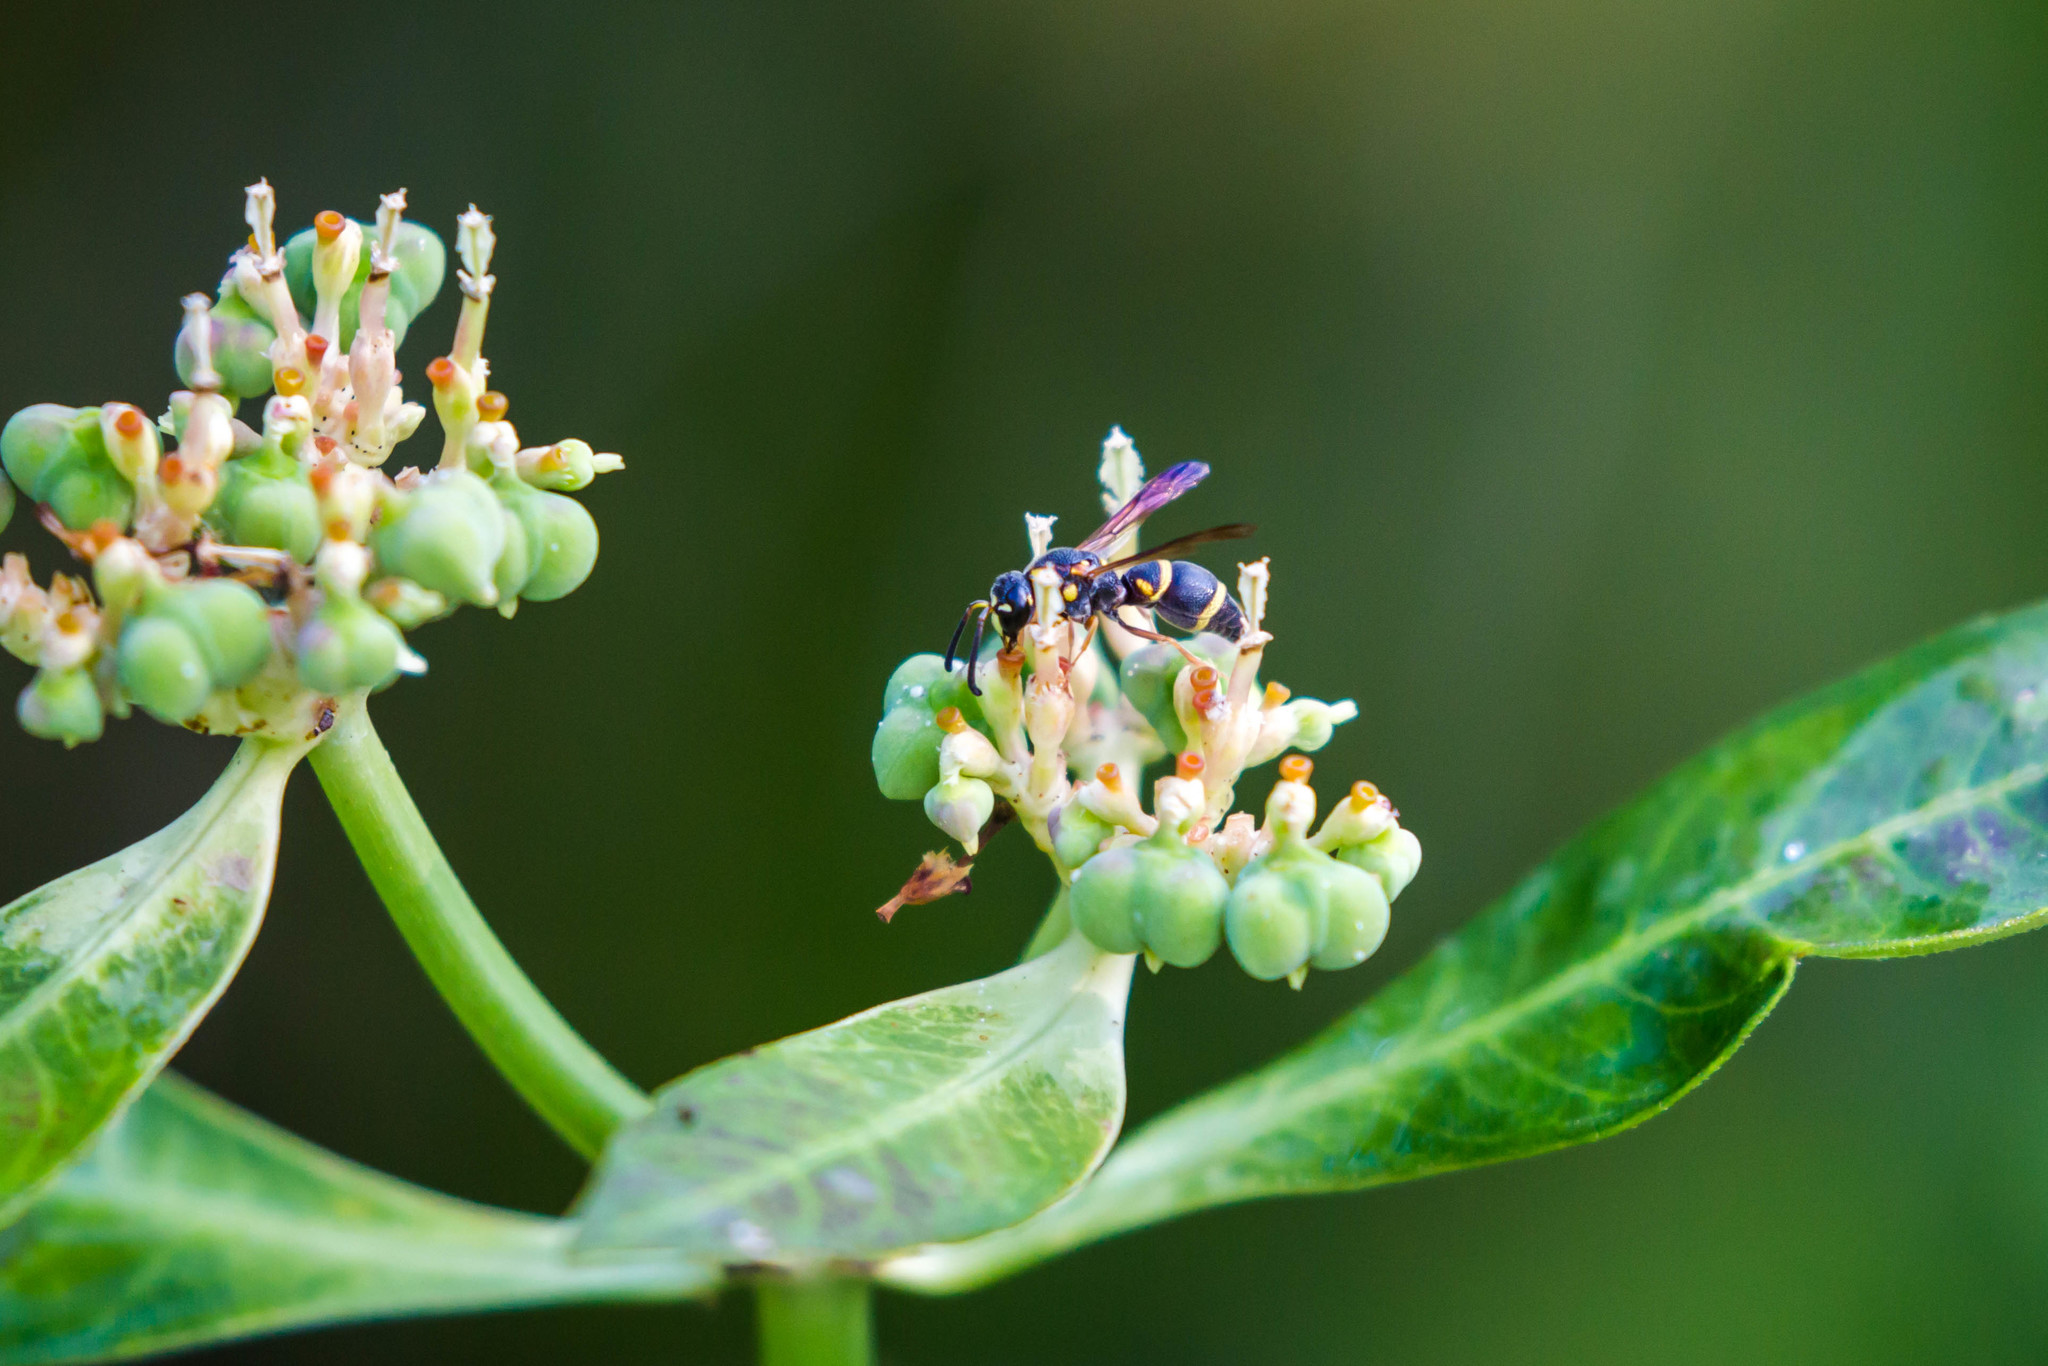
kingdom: Animalia
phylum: Arthropoda
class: Insecta
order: Hymenoptera
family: Eumenidae
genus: Parancistrocerus
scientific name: Parancistrocerus fulvipes
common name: Potter wasp
